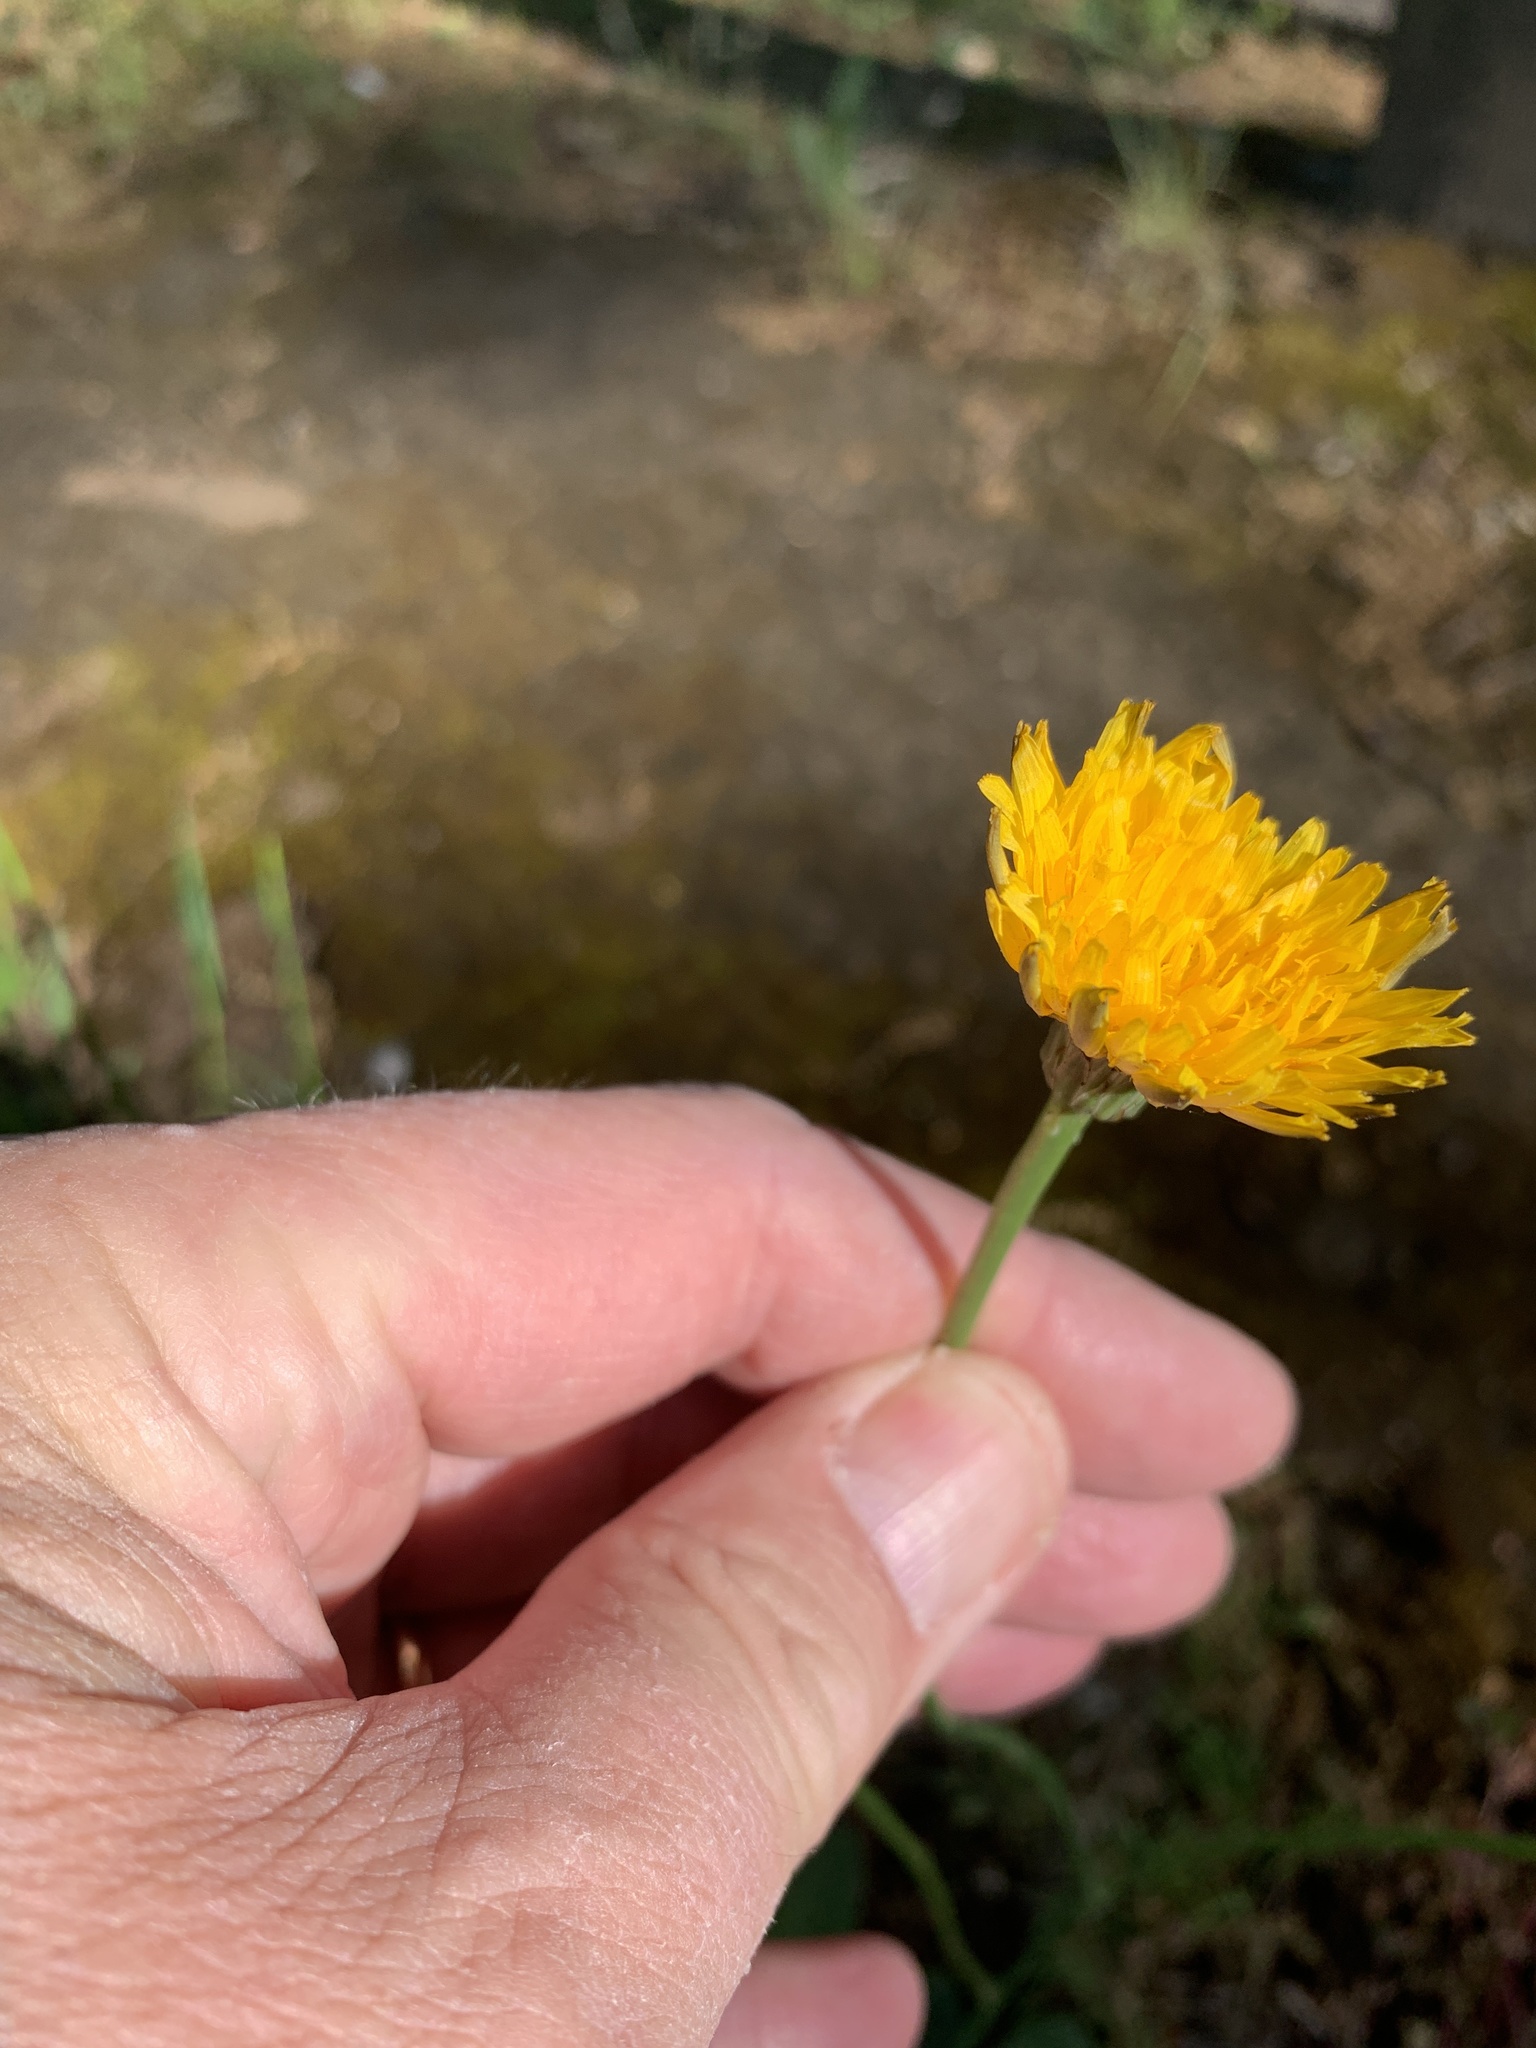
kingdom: Plantae
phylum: Tracheophyta
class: Magnoliopsida
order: Asterales
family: Asteraceae
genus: Hypochaeris
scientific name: Hypochaeris radicata
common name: Flatweed
